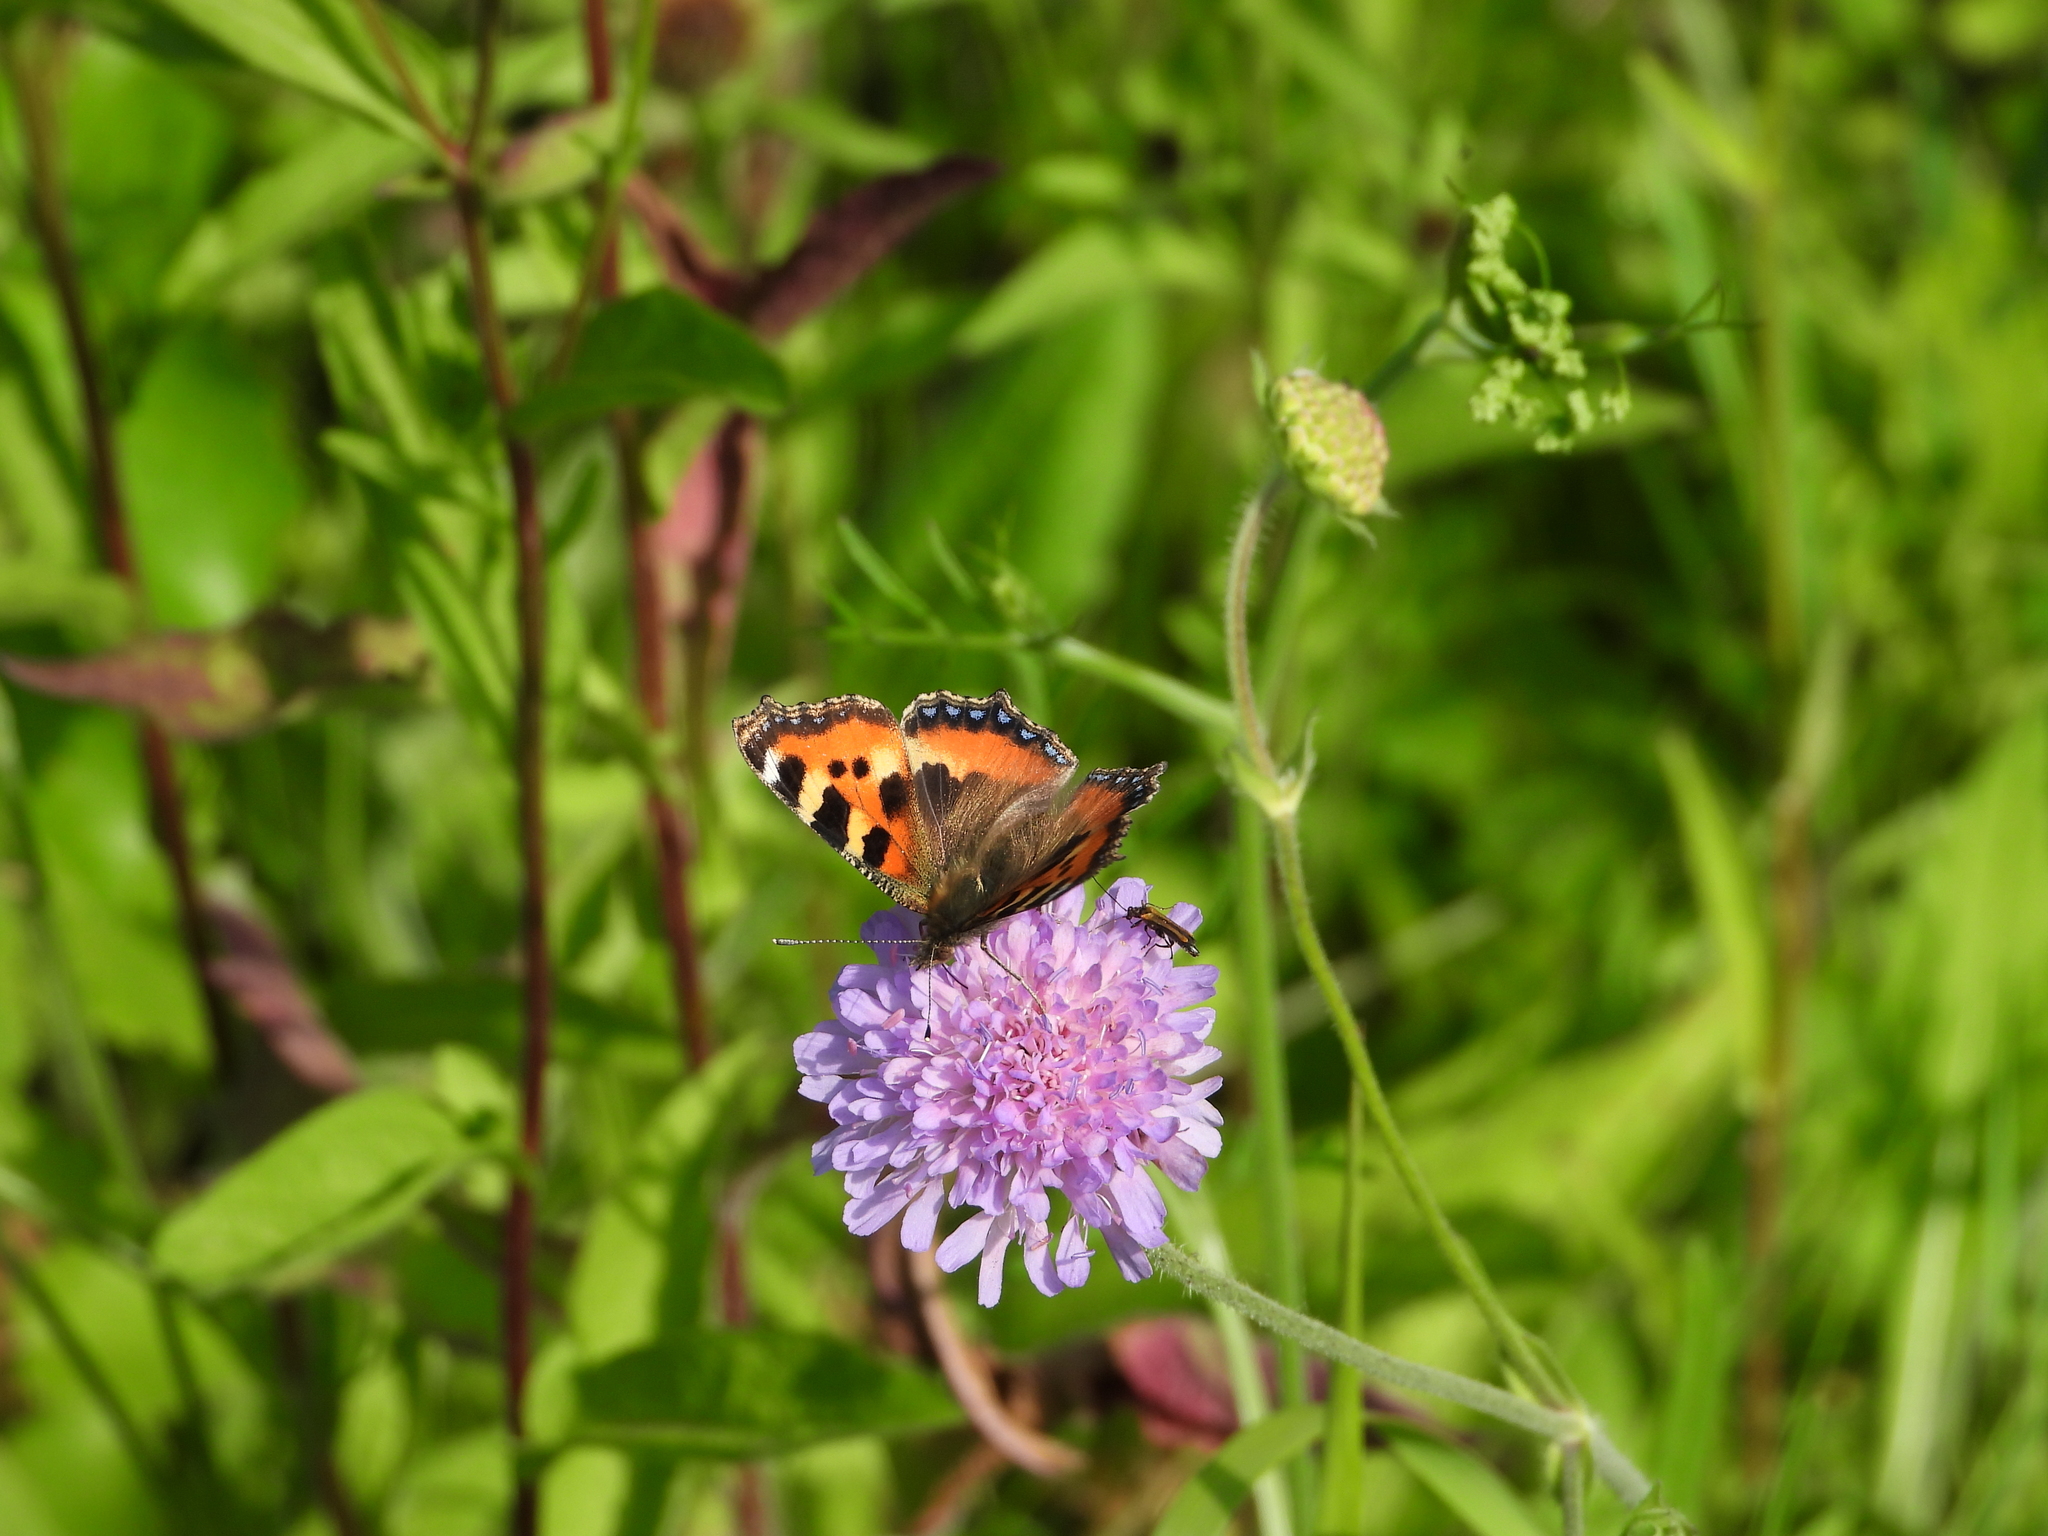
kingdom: Animalia
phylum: Arthropoda
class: Insecta
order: Lepidoptera
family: Nymphalidae
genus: Aglais
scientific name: Aglais urticae
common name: Small tortoiseshell
